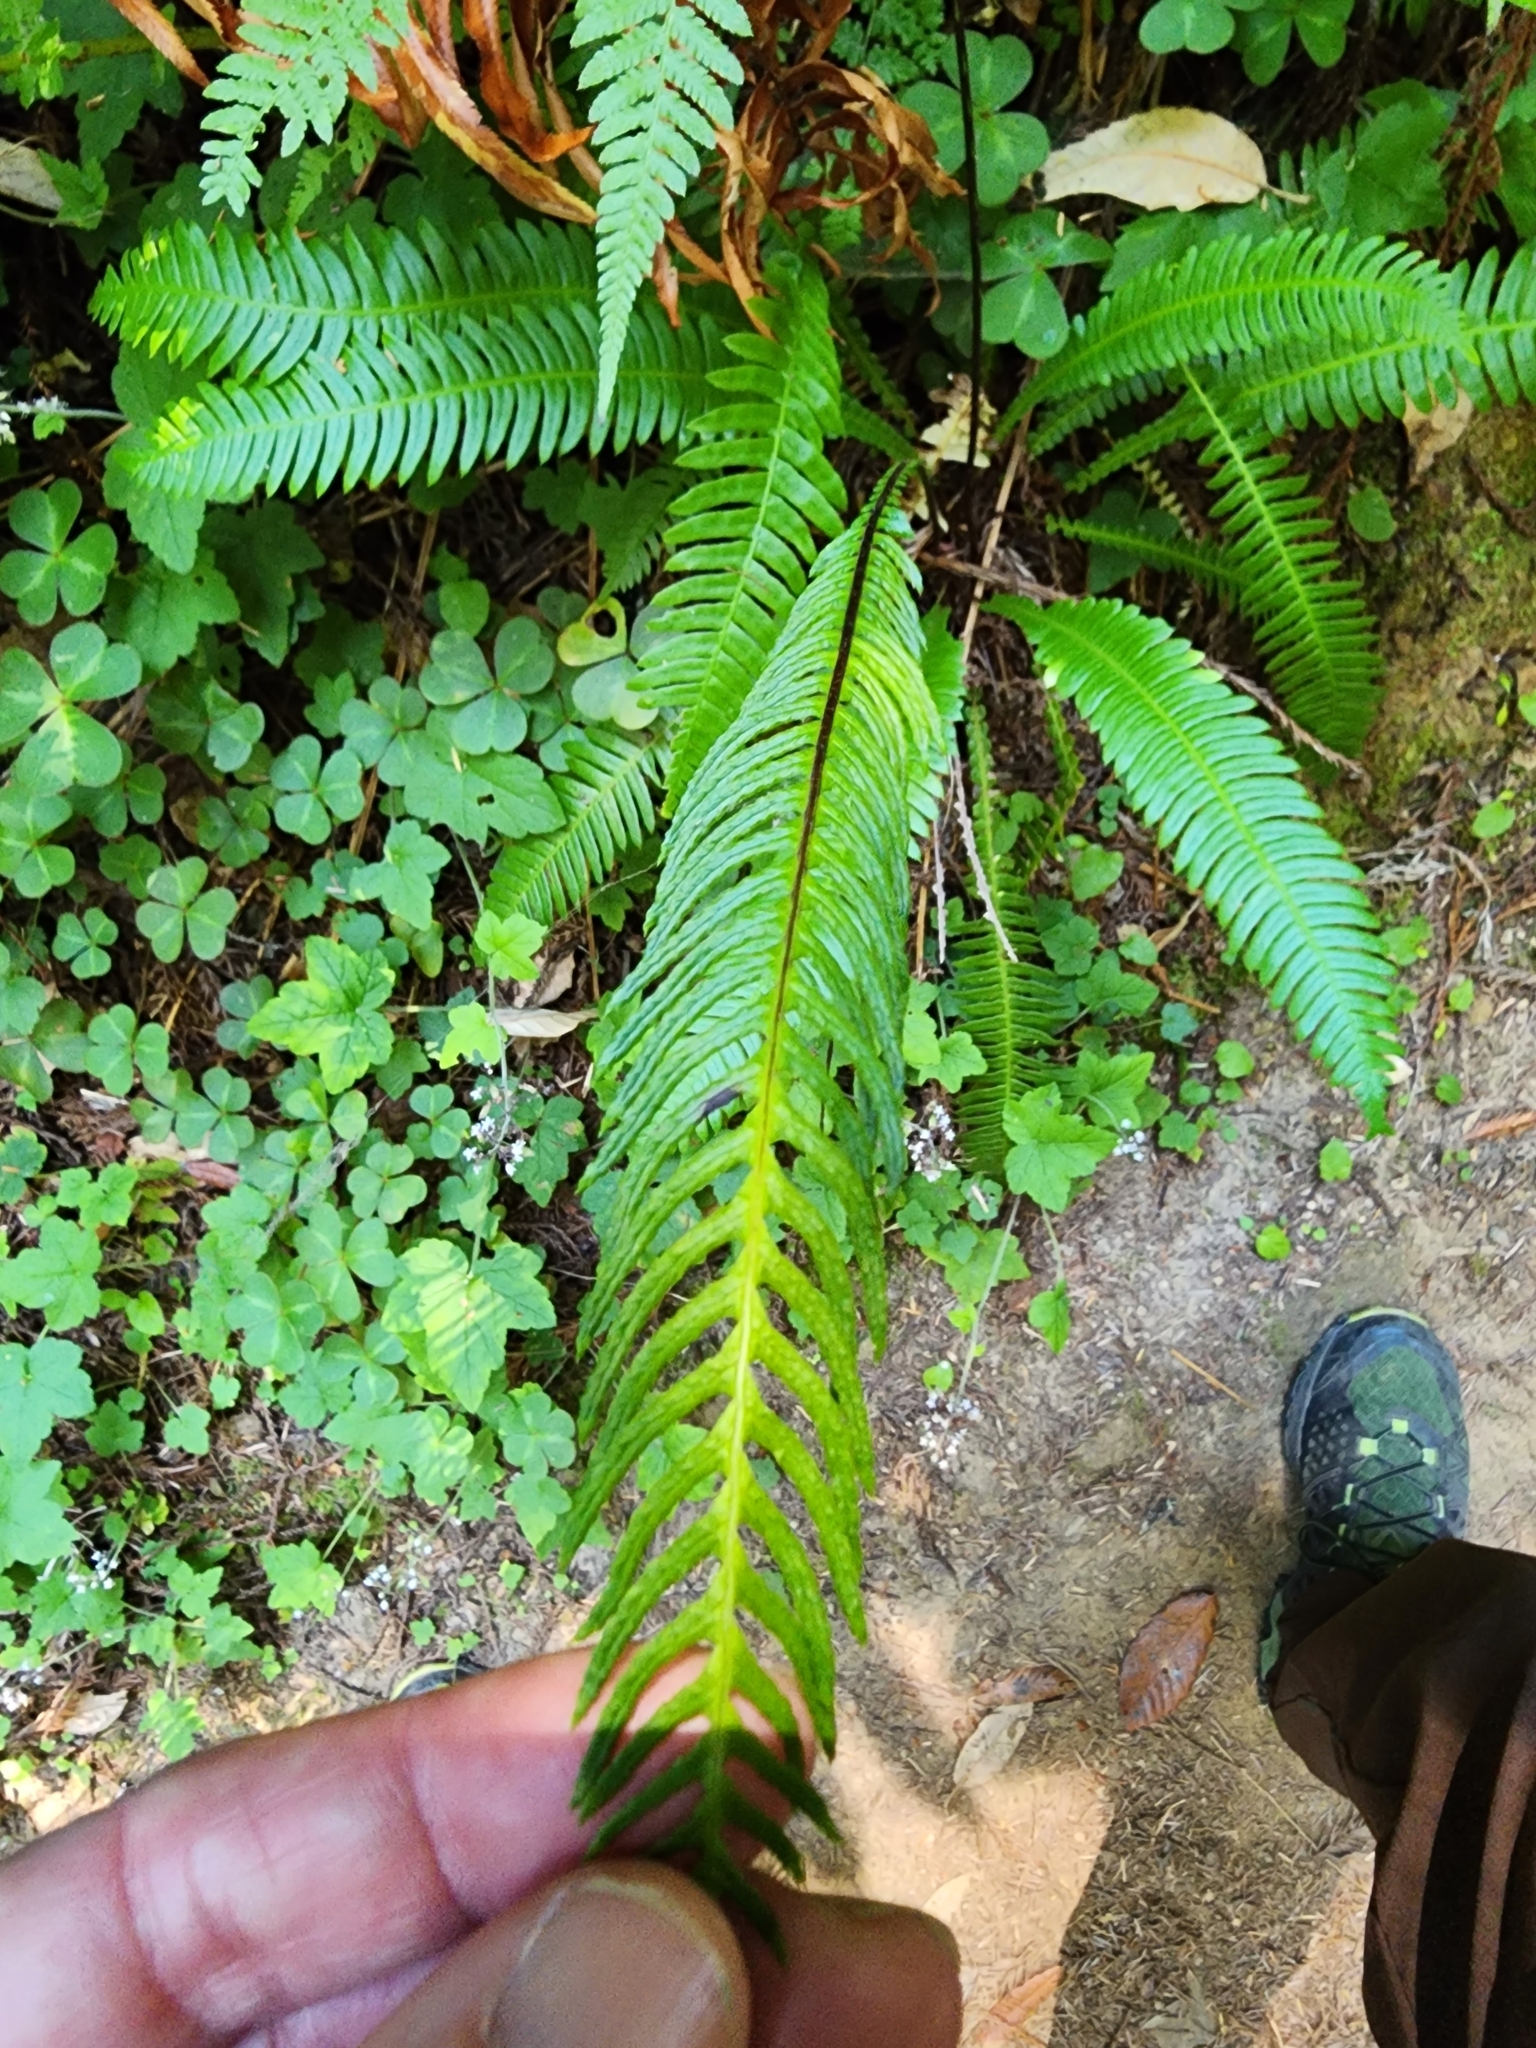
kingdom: Plantae
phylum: Tracheophyta
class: Polypodiopsida
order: Polypodiales
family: Blechnaceae
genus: Struthiopteris
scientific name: Struthiopteris spicant
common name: Deer fern
